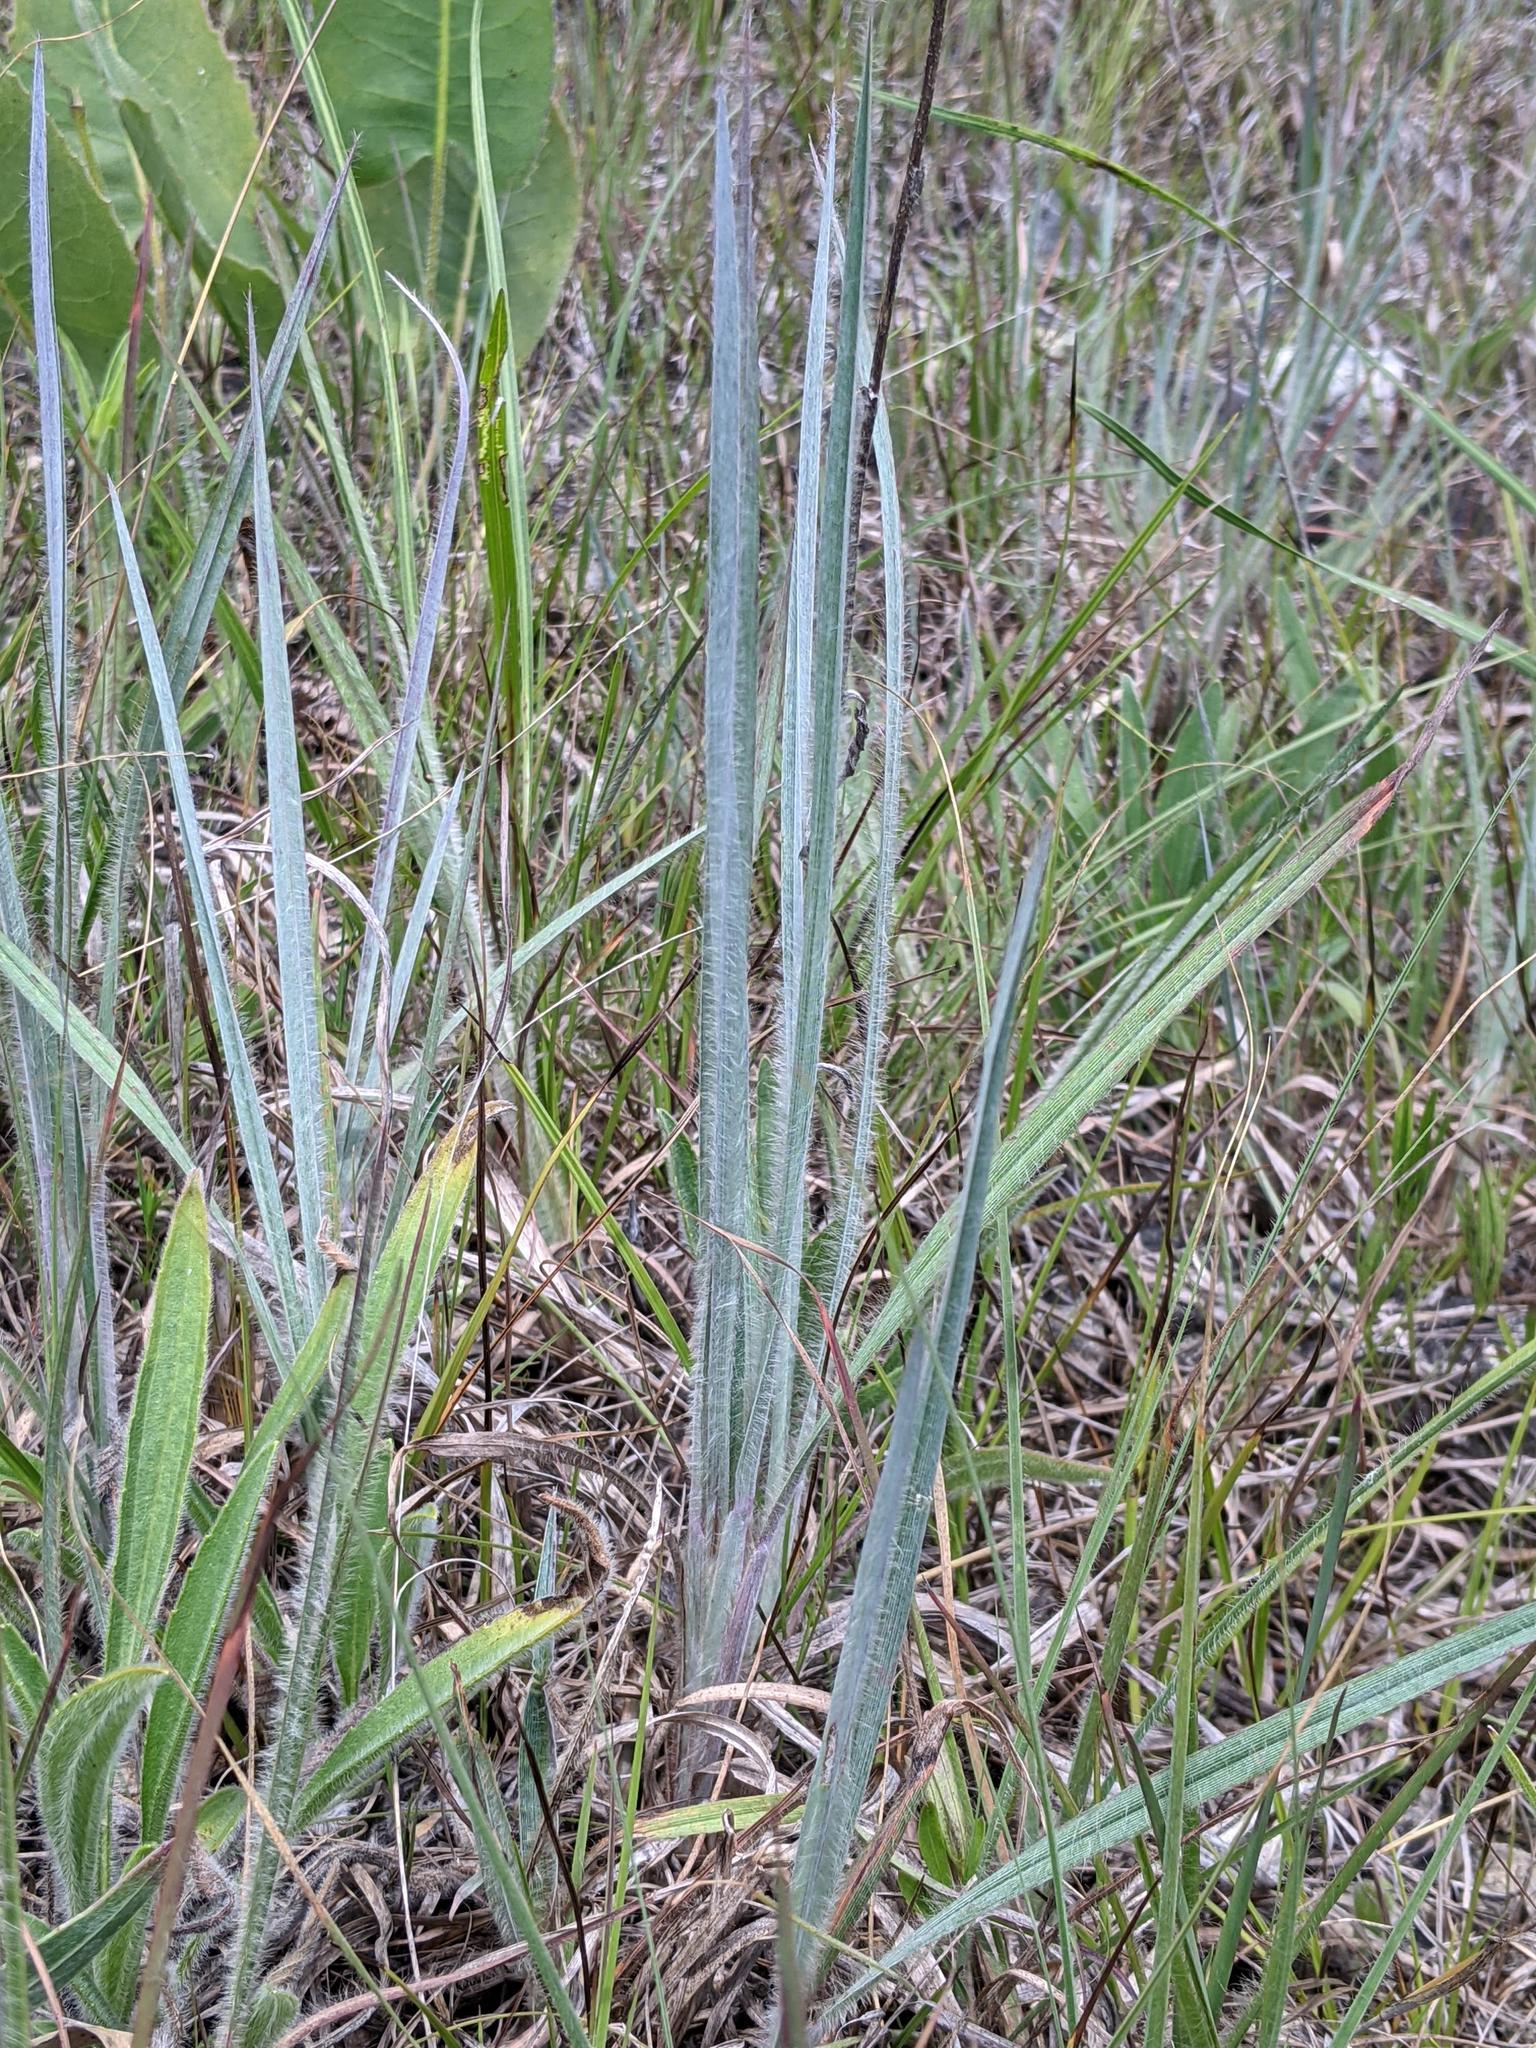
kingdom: Plantae
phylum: Tracheophyta
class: Liliopsida
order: Poales
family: Poaceae
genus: Schizachyrium
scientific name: Schizachyrium scoparium
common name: Little bluestem
